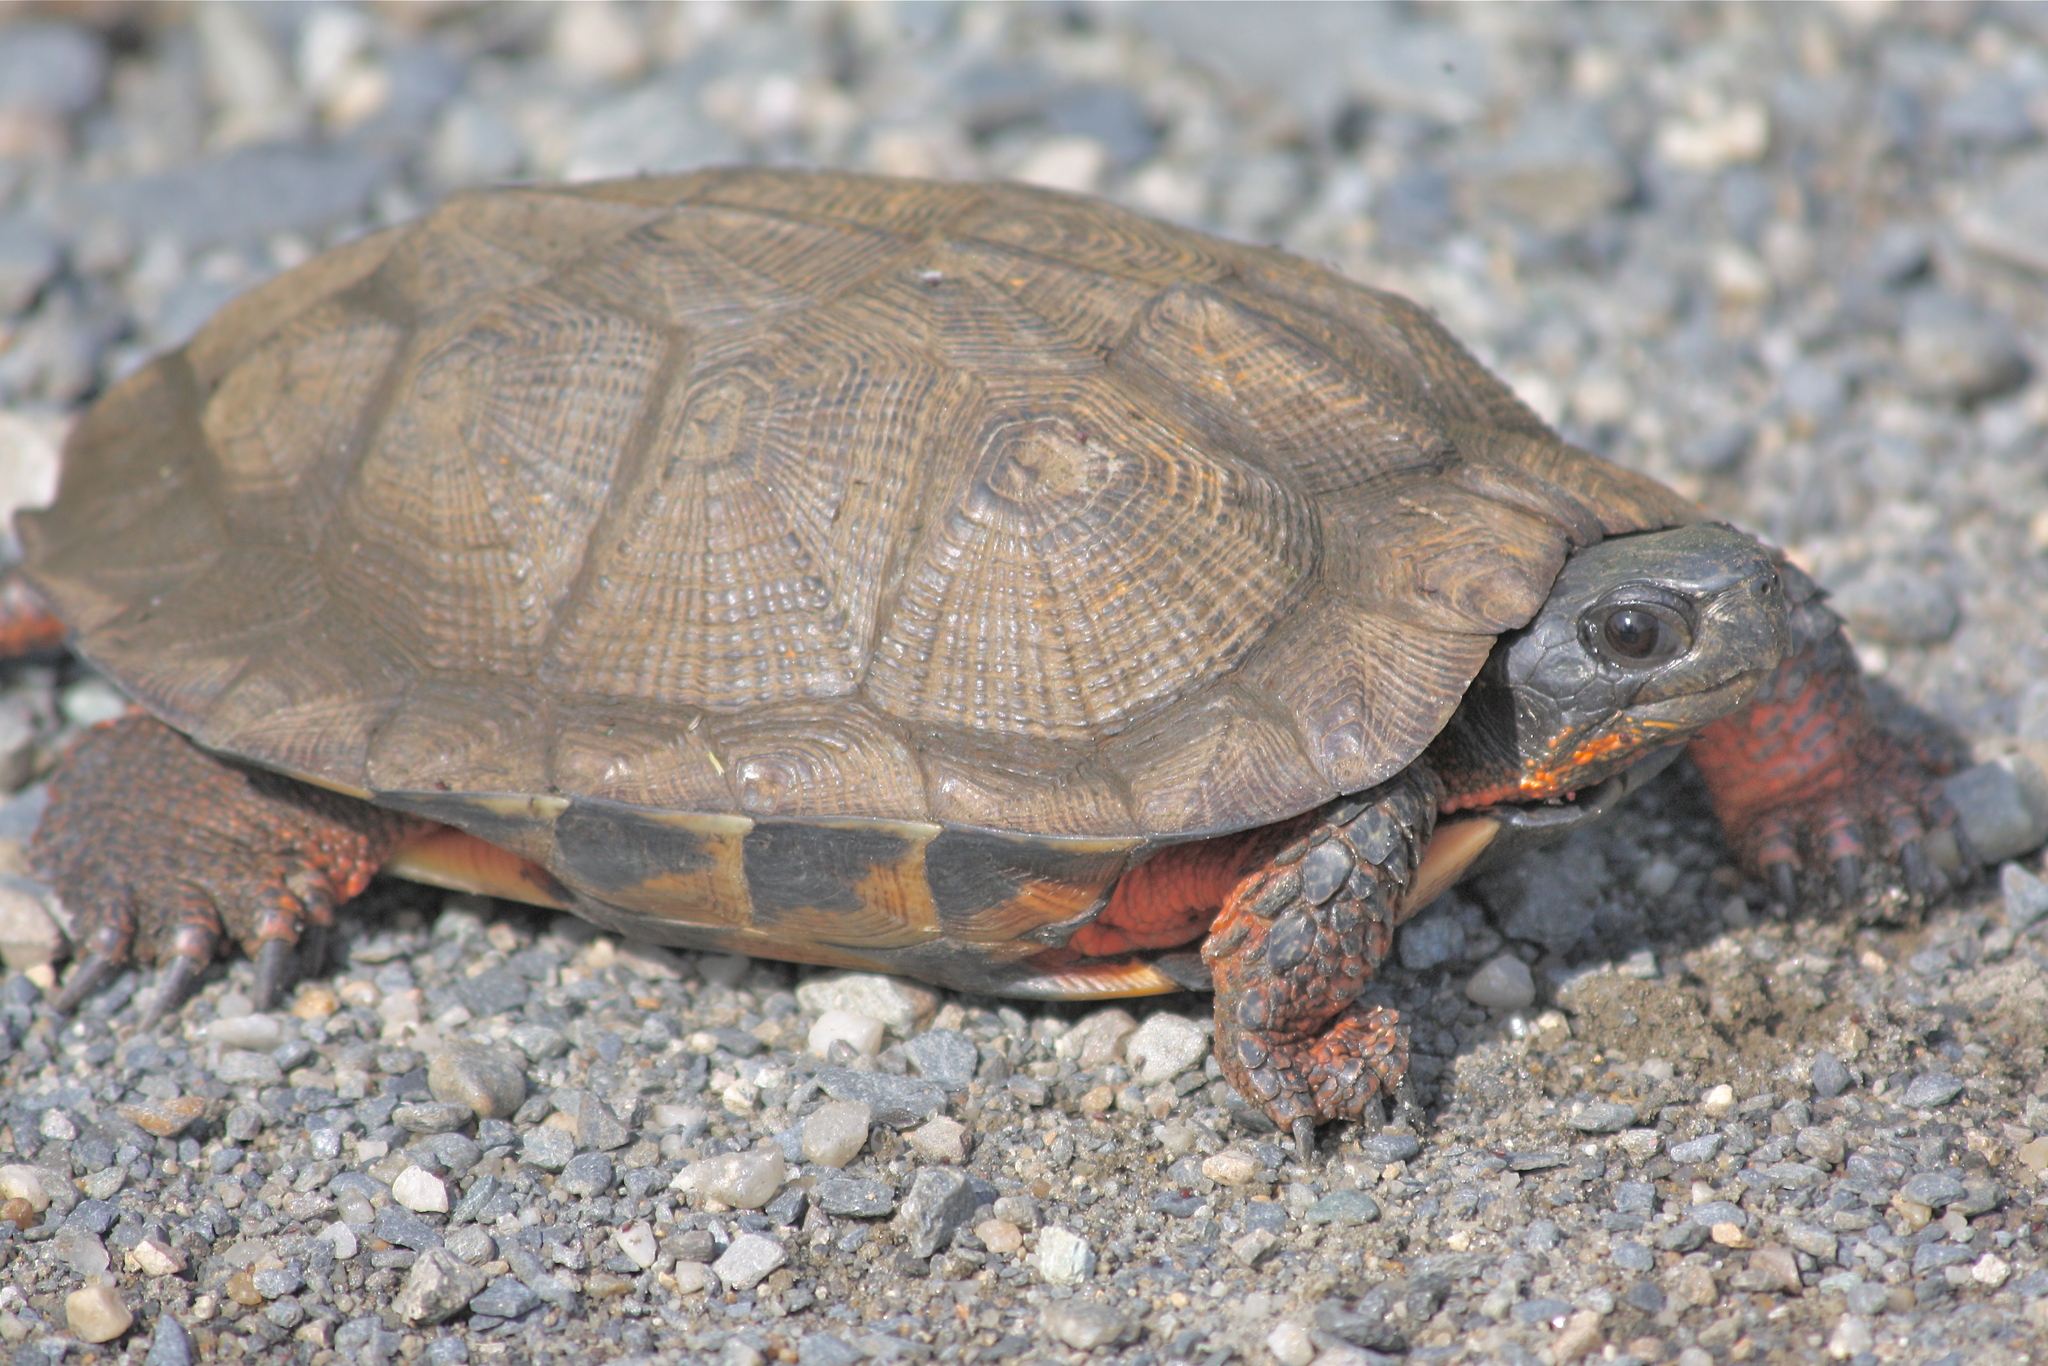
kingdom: Animalia
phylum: Chordata
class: Testudines
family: Emydidae
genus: Glyptemys
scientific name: Glyptemys insculpta
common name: Wood turtle
